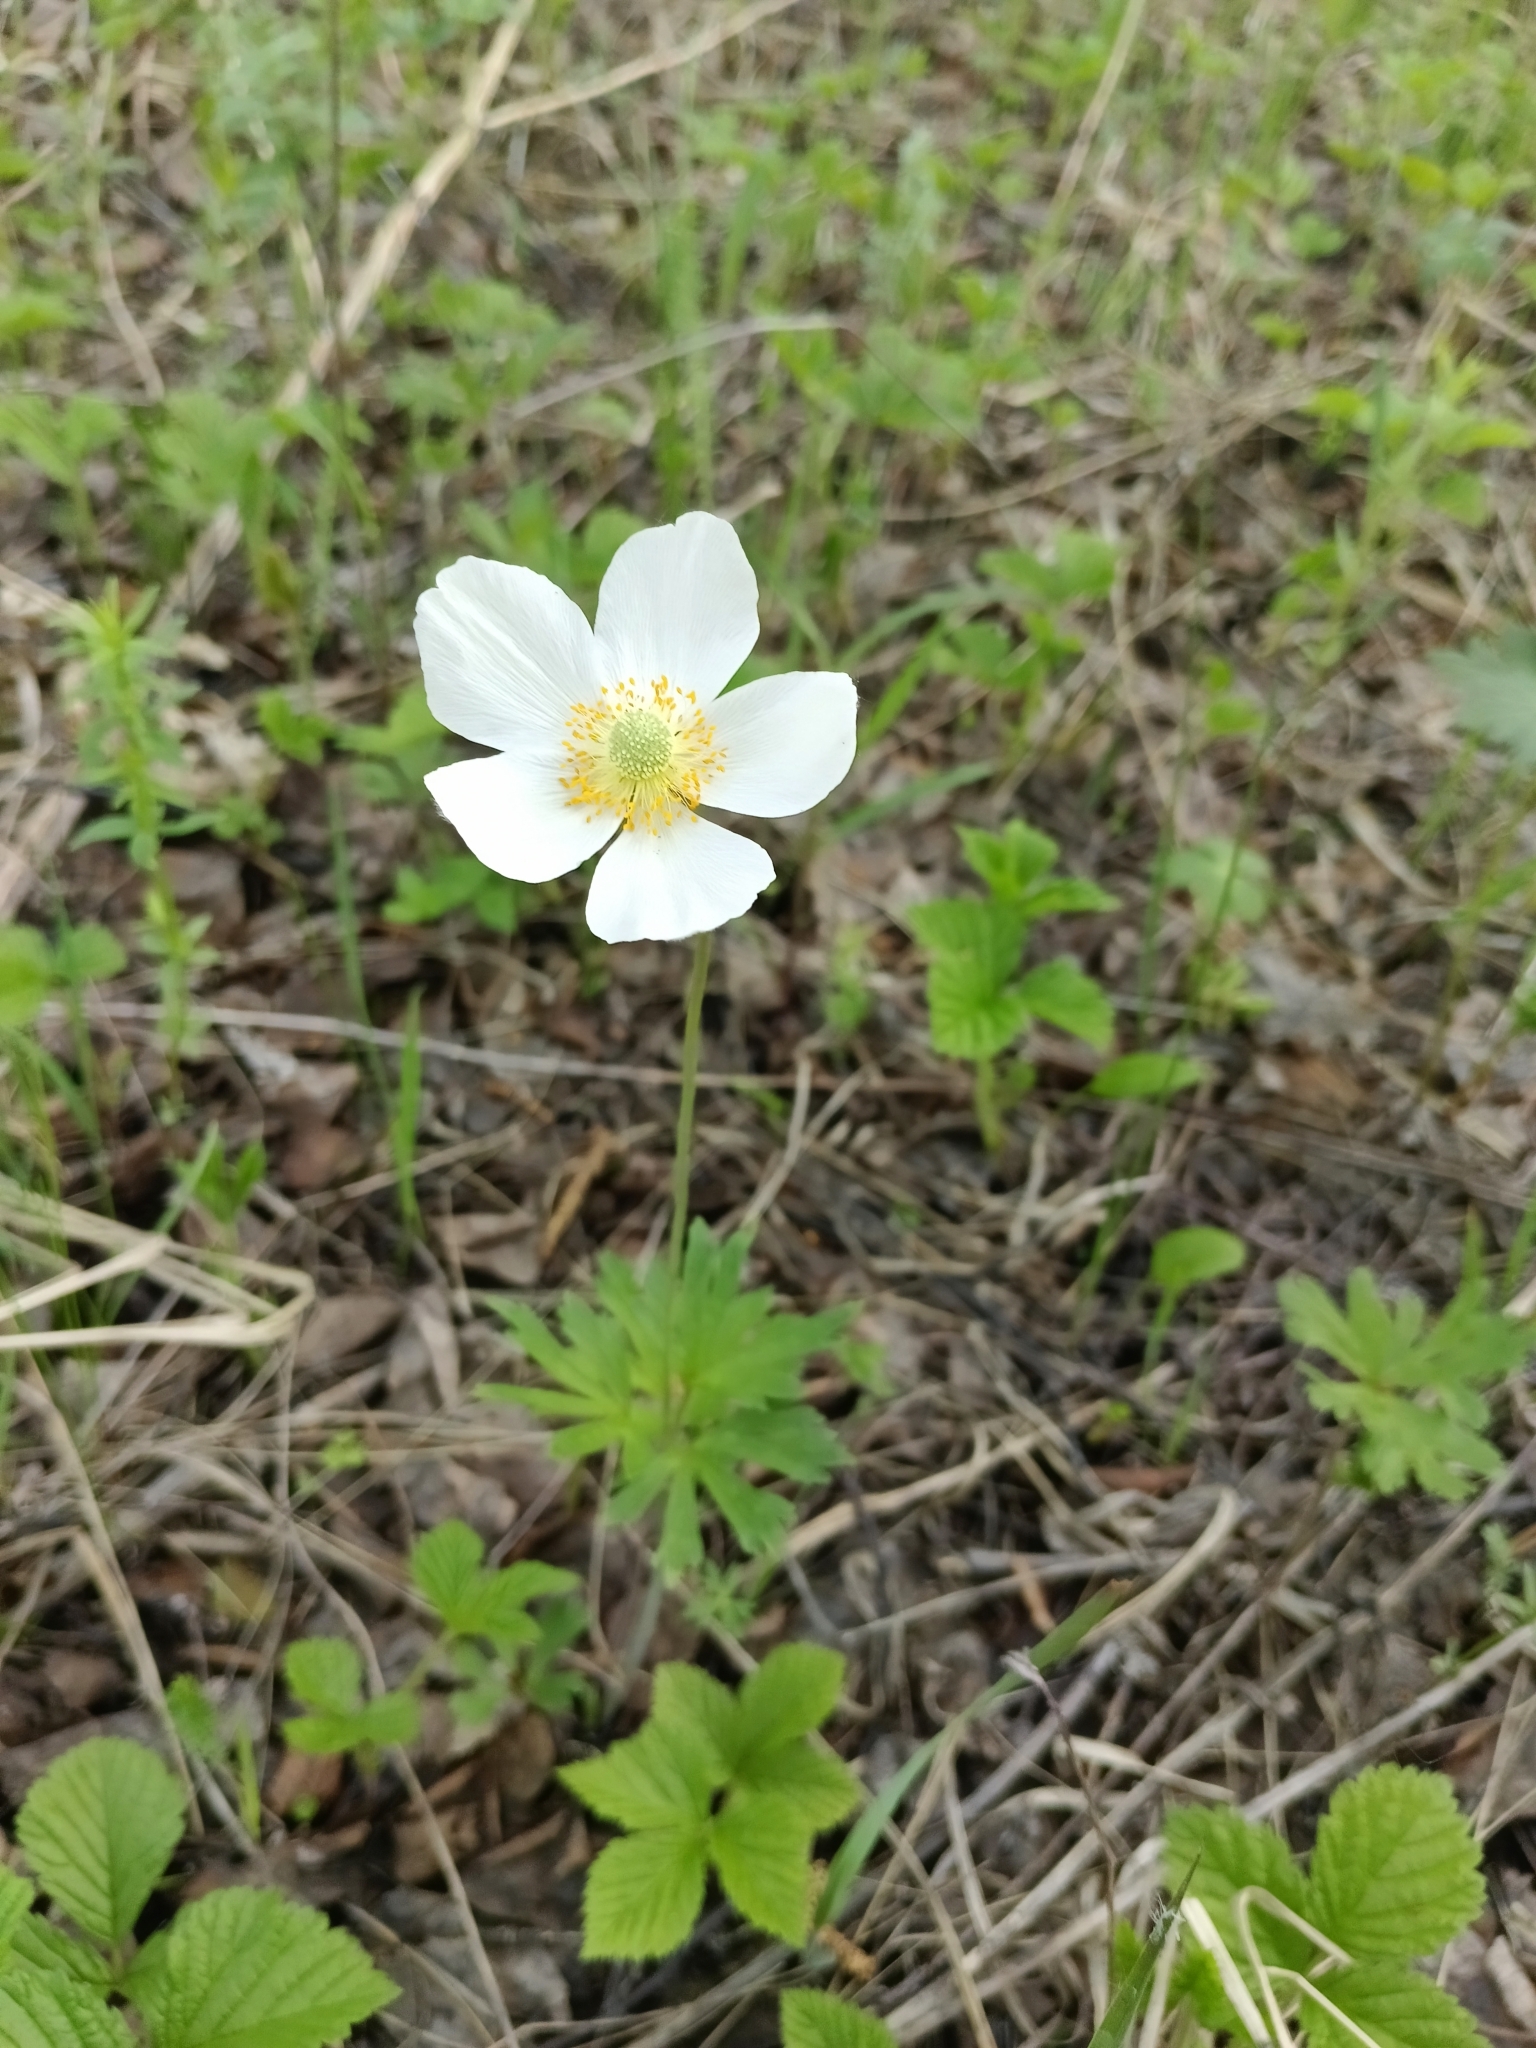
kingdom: Plantae
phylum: Tracheophyta
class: Magnoliopsida
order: Ranunculales
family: Ranunculaceae
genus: Anemone
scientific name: Anemone sylvestris
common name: Snowdrop anemone
